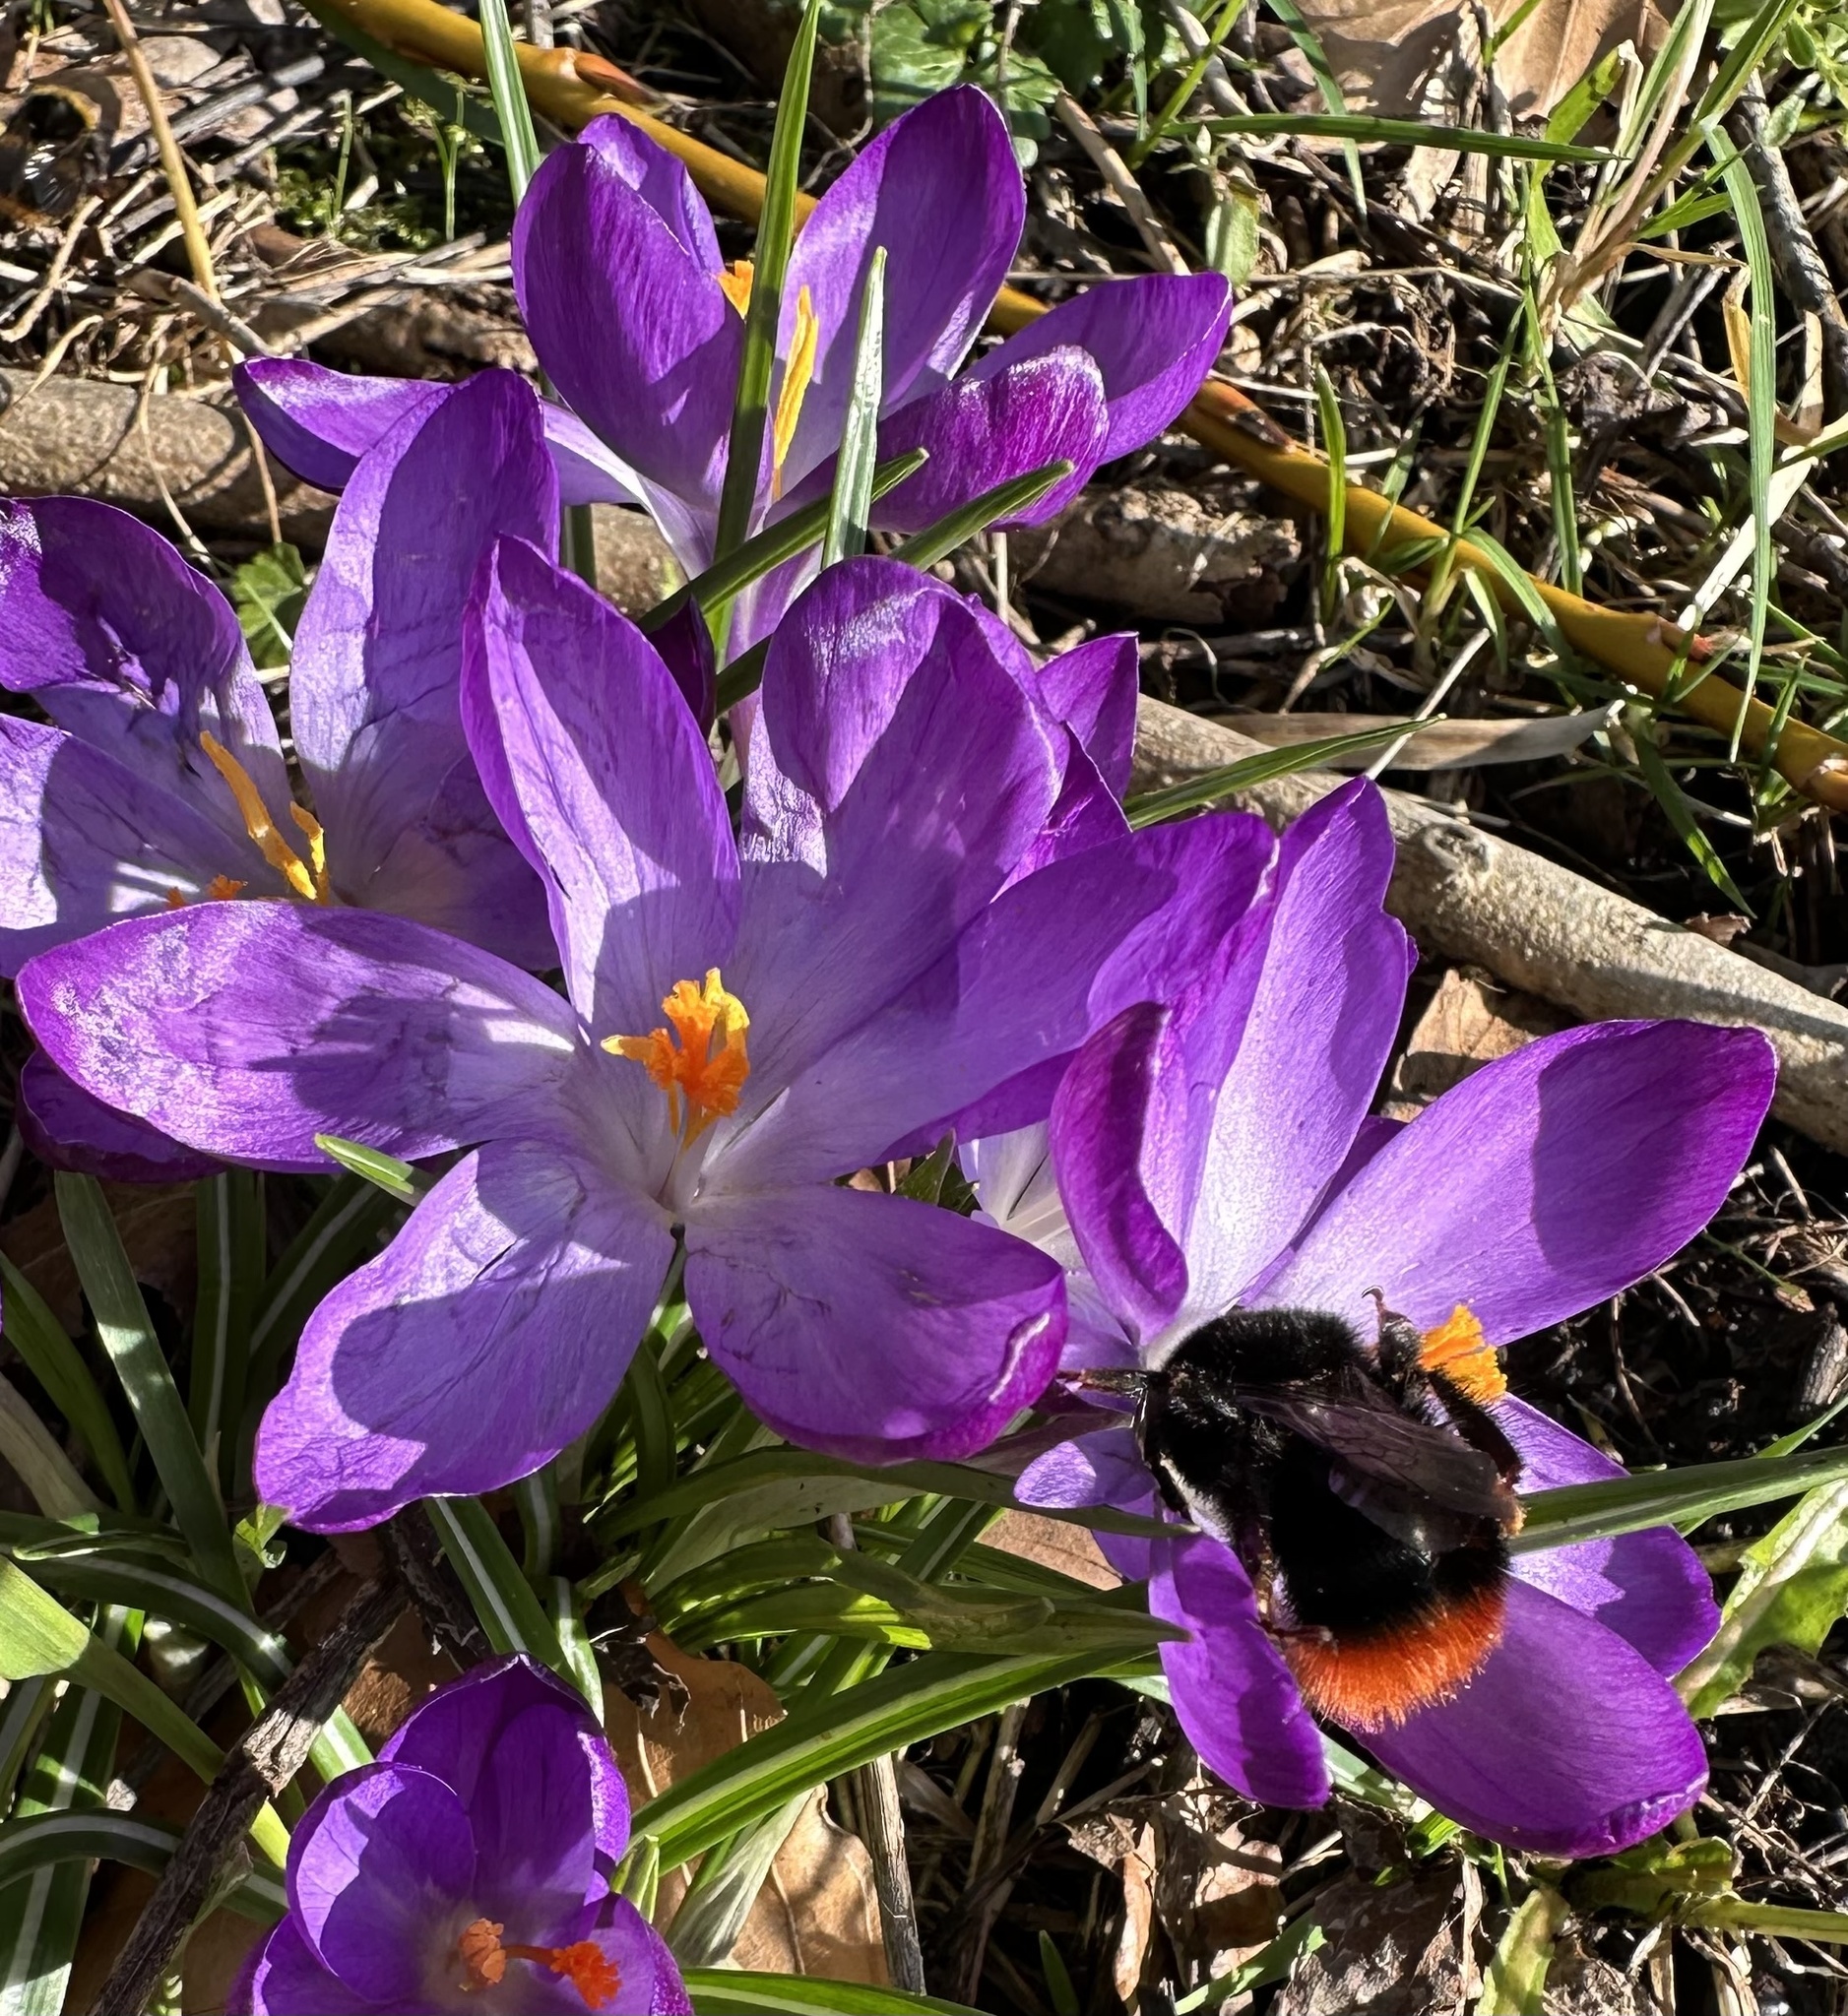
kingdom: Animalia
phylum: Arthropoda
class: Insecta
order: Hymenoptera
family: Apidae
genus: Bombus
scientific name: Bombus lapidarius
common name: Large red-tailed humble-bee
